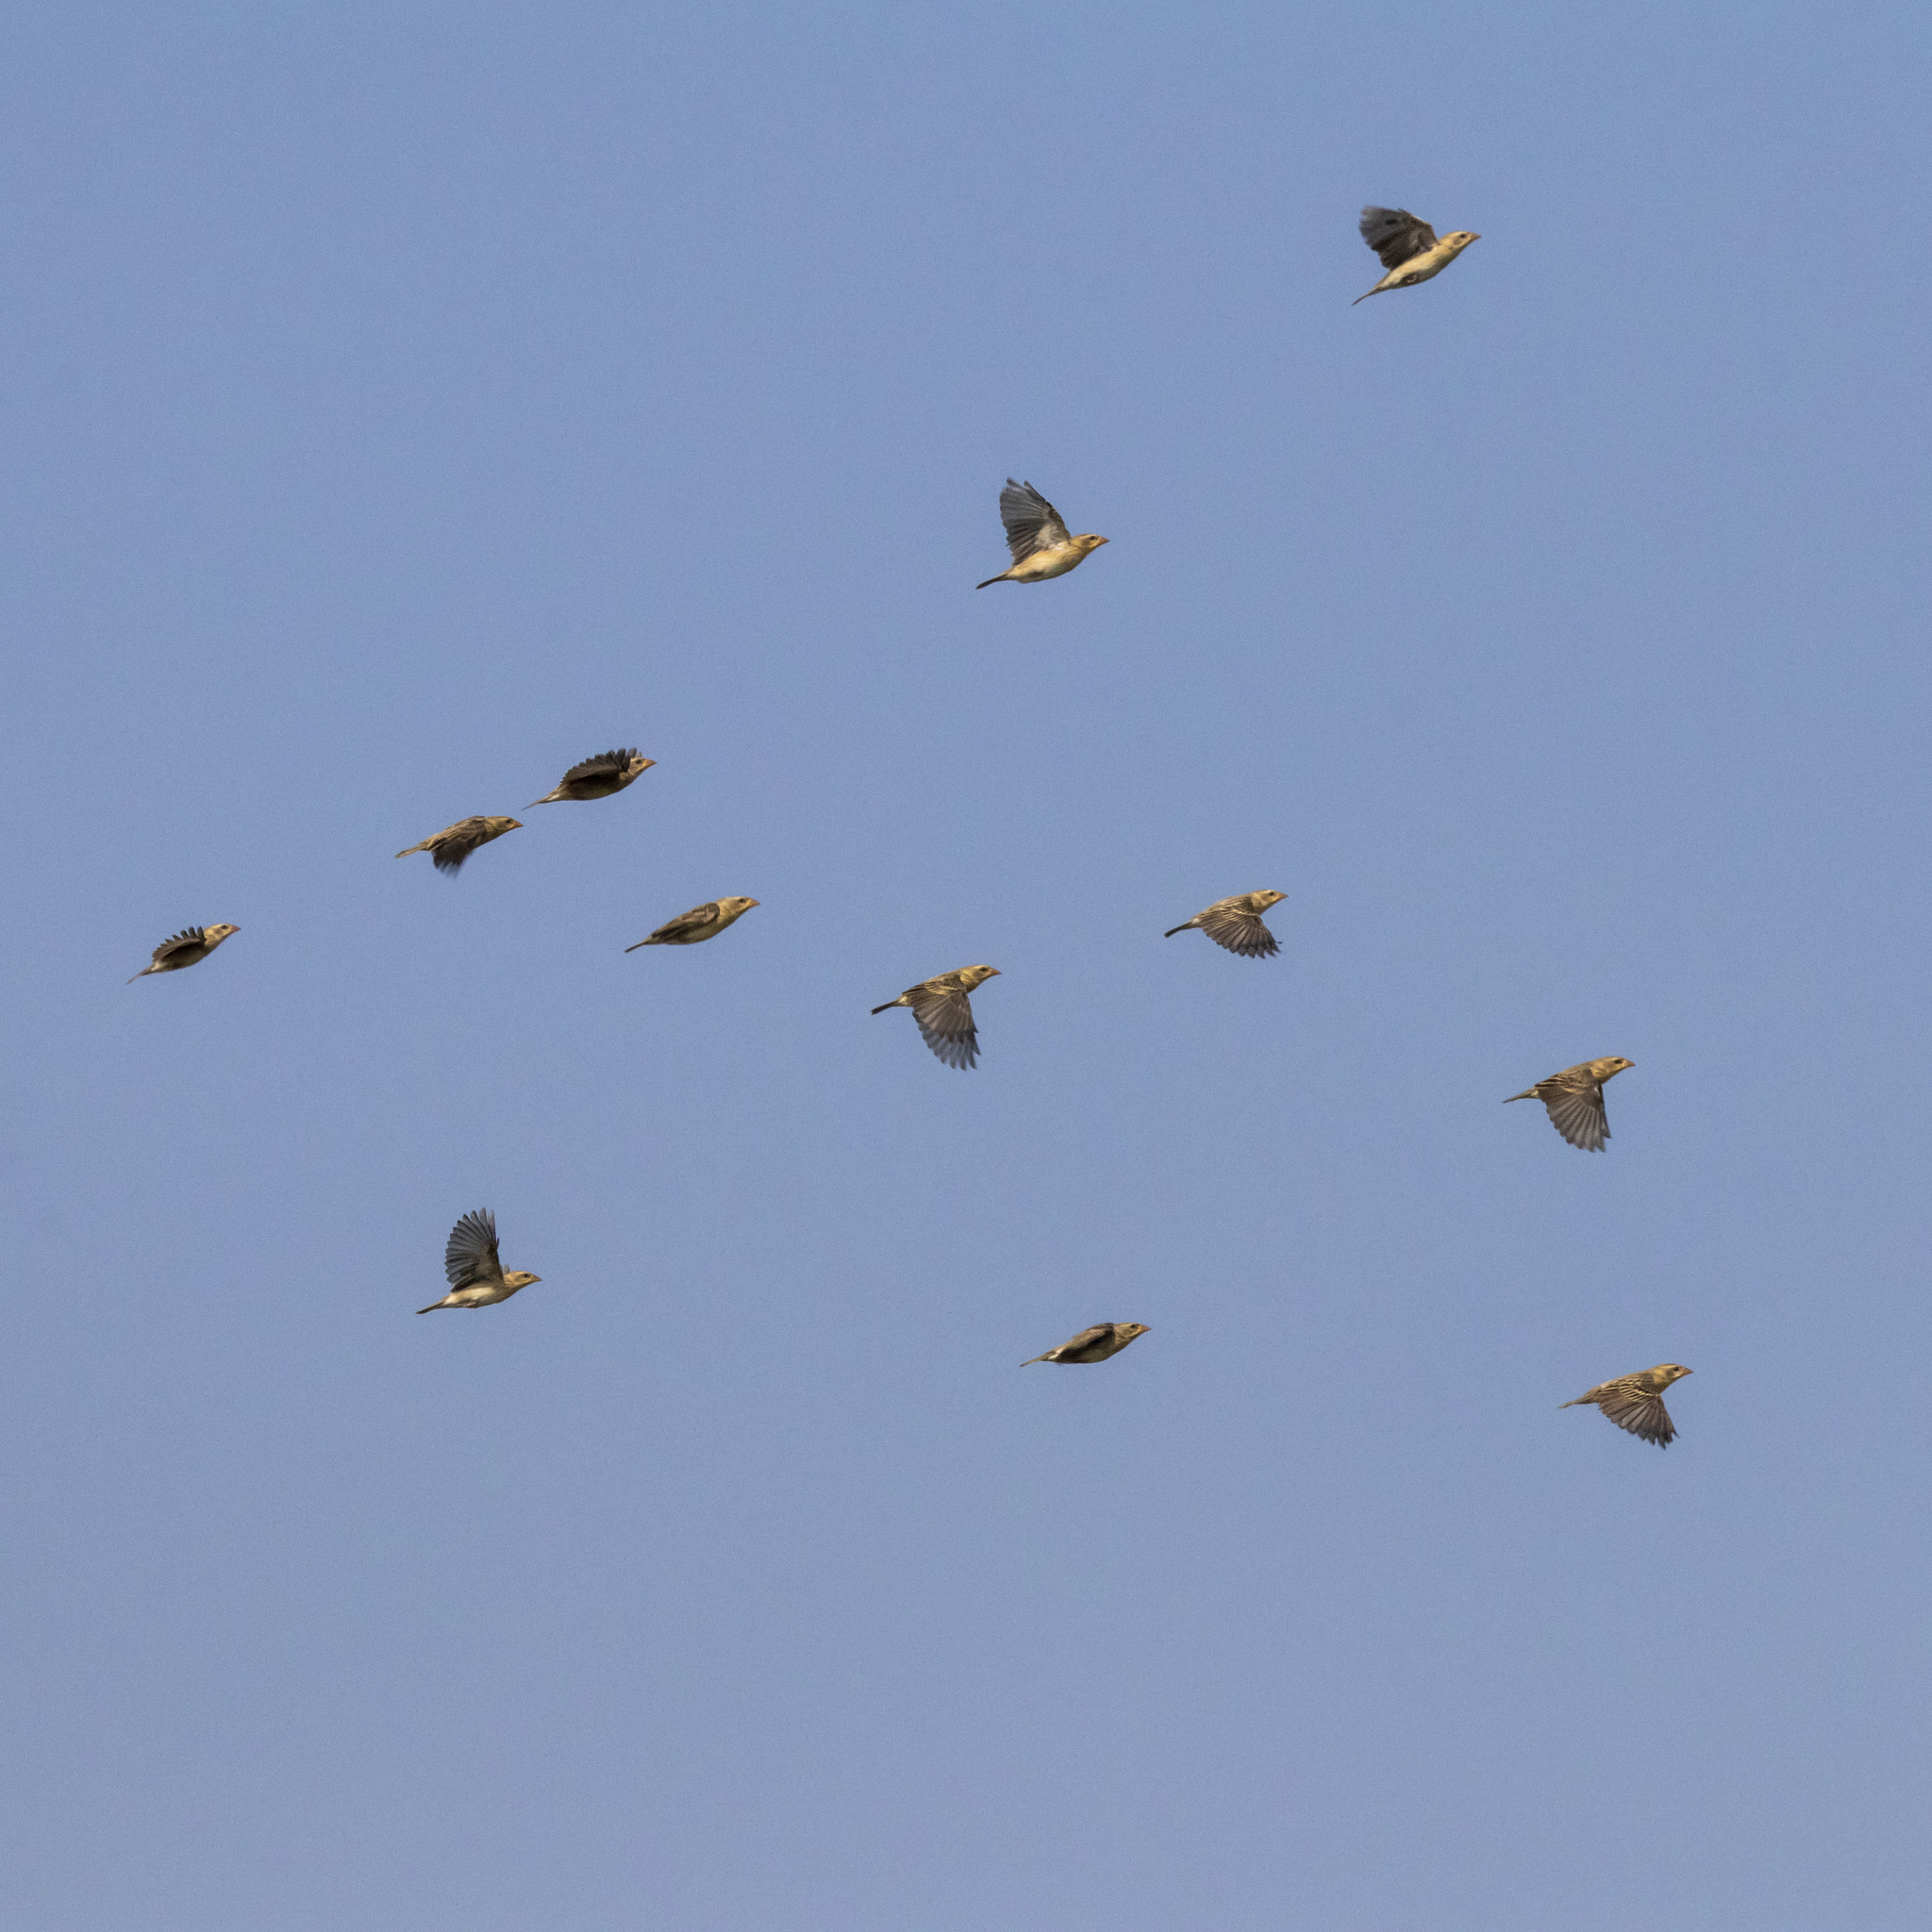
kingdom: Animalia
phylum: Chordata
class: Aves
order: Passeriformes
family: Ploceidae
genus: Ploceus
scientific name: Ploceus philippinus
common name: Baya weaver
